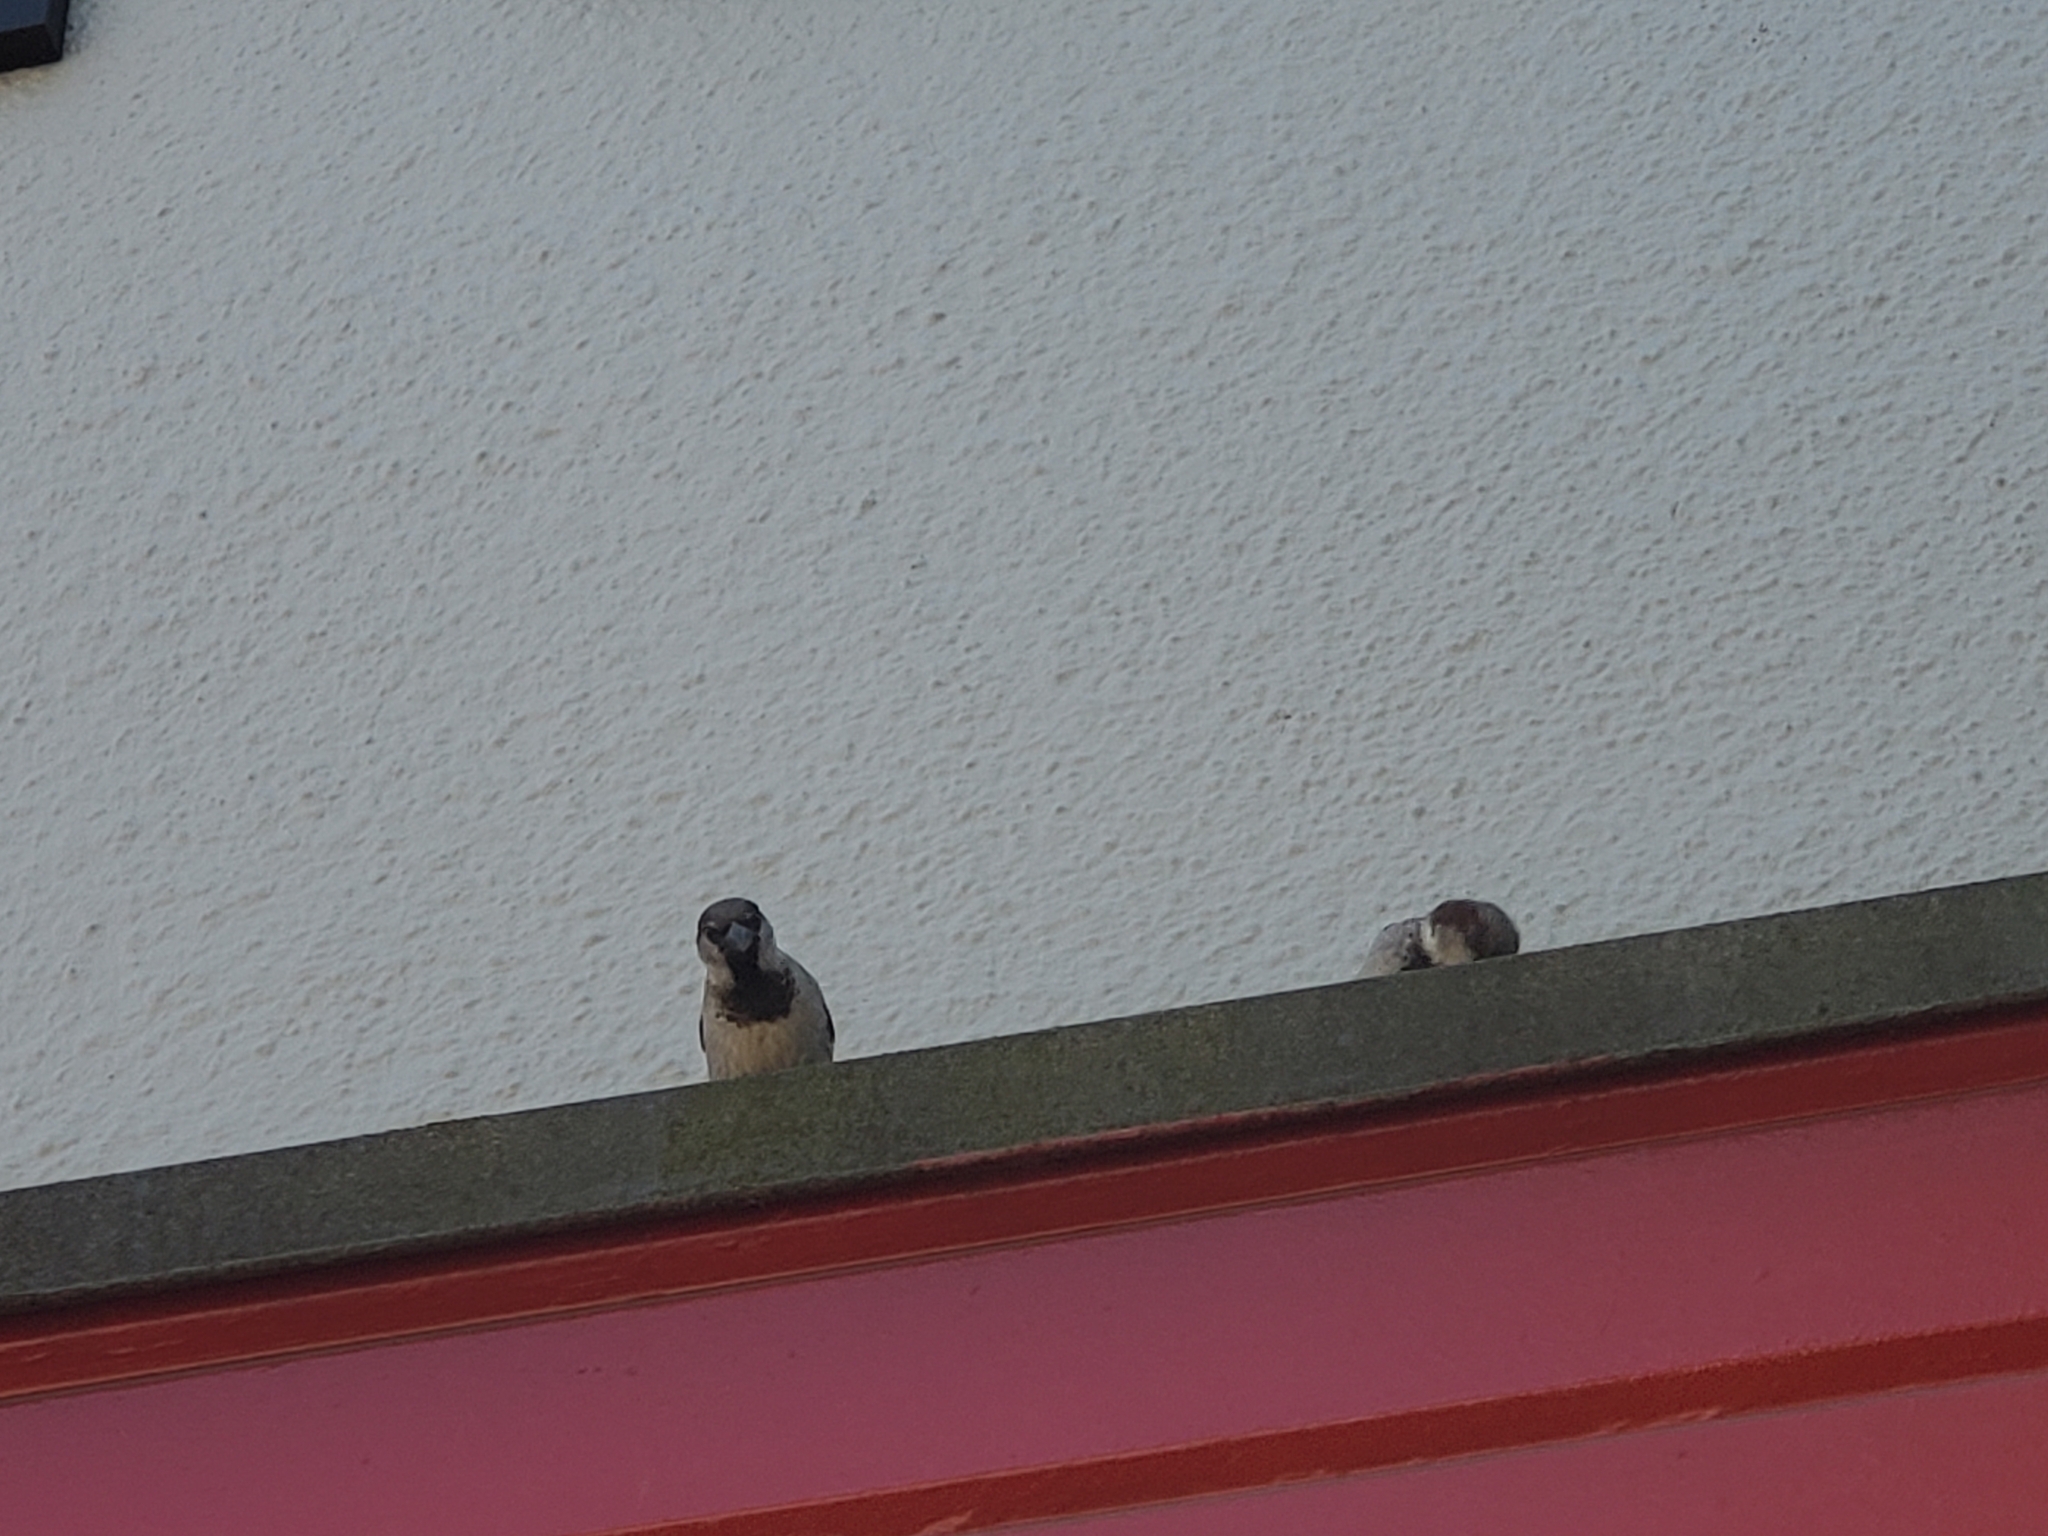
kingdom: Animalia
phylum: Chordata
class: Aves
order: Passeriformes
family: Passeridae
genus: Passer
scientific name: Passer domesticus
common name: House sparrow
